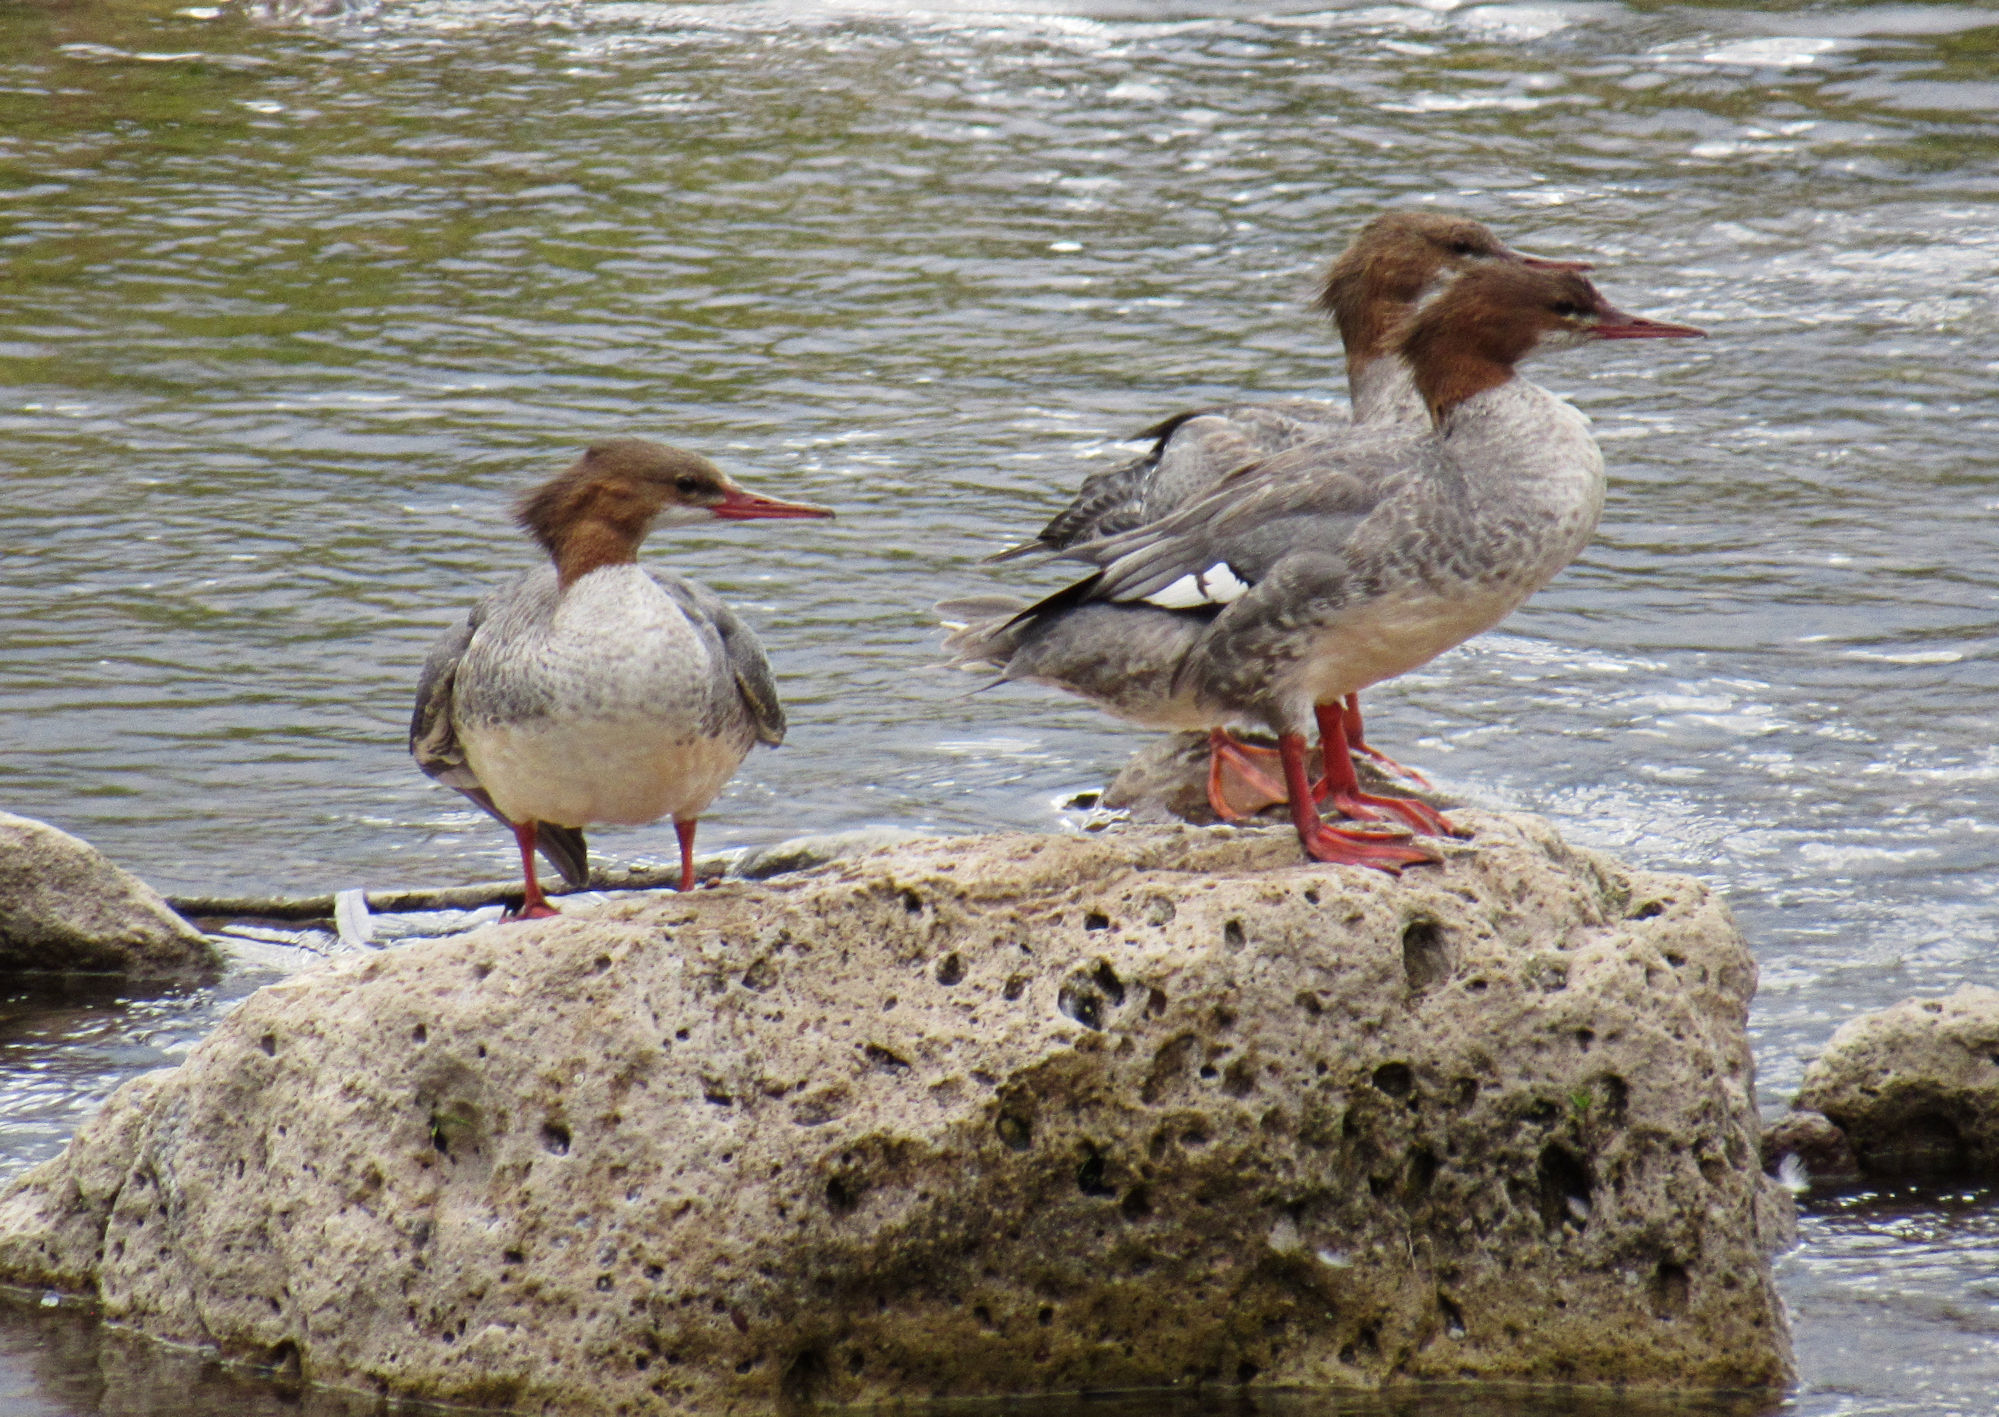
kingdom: Animalia
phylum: Chordata
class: Aves
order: Anseriformes
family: Anatidae
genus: Mergus
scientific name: Mergus merganser
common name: Common merganser
